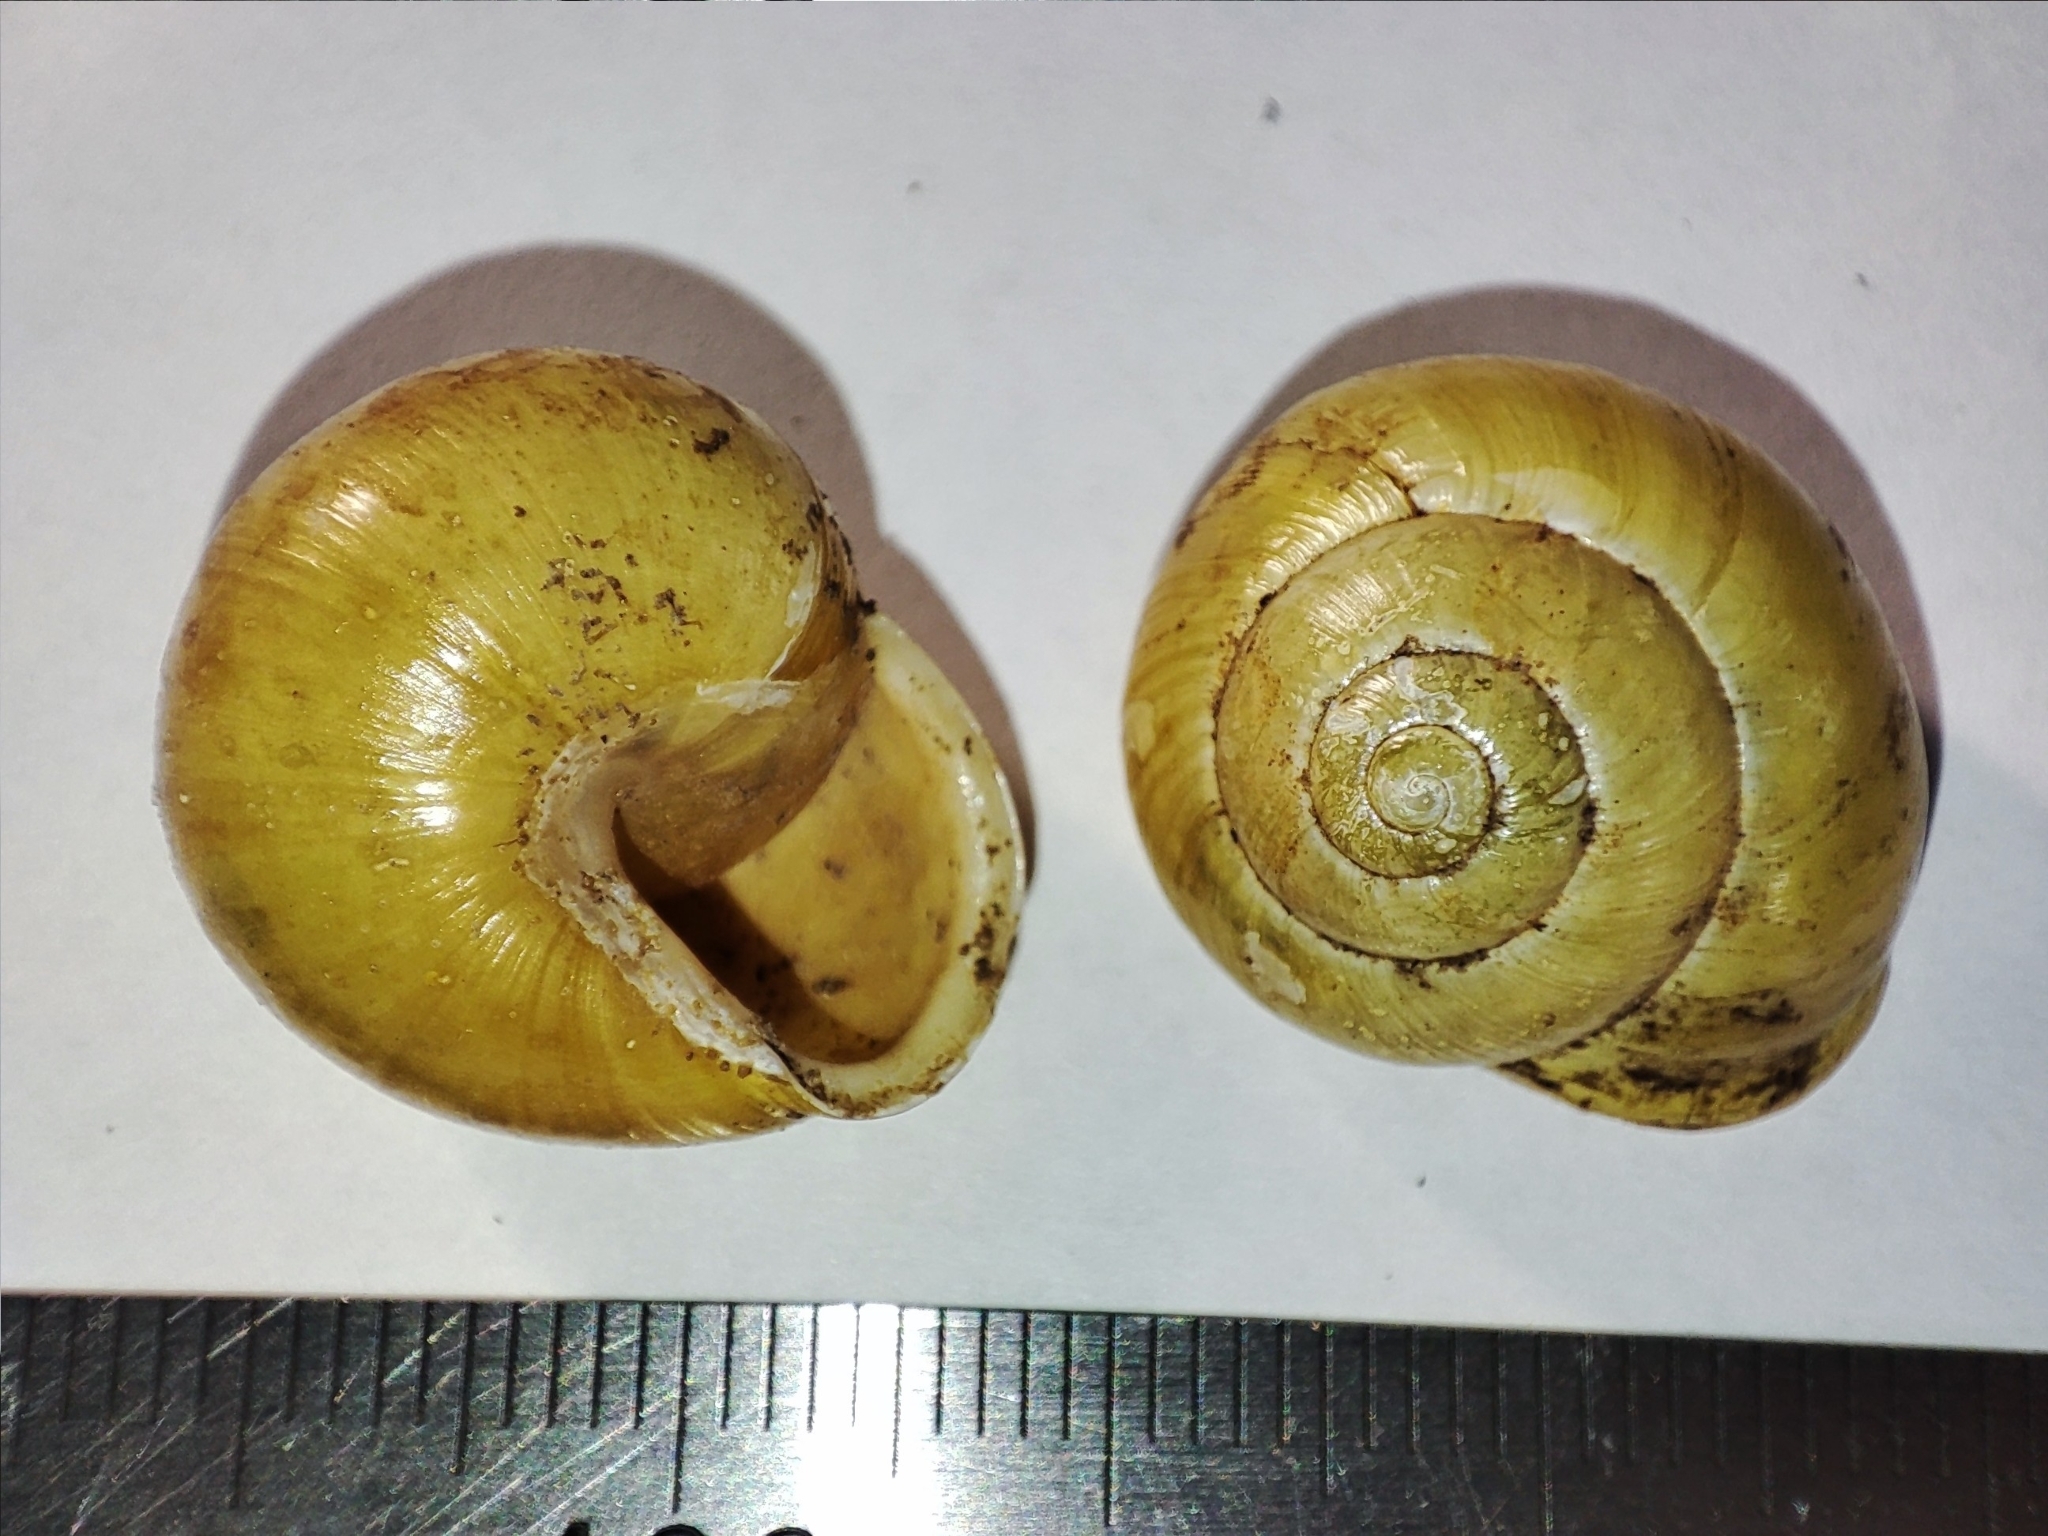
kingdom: Animalia
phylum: Mollusca
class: Gastropoda
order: Stylommatophora
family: Helicidae
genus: Cepaea
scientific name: Cepaea hortensis
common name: White-lip gardensnail
